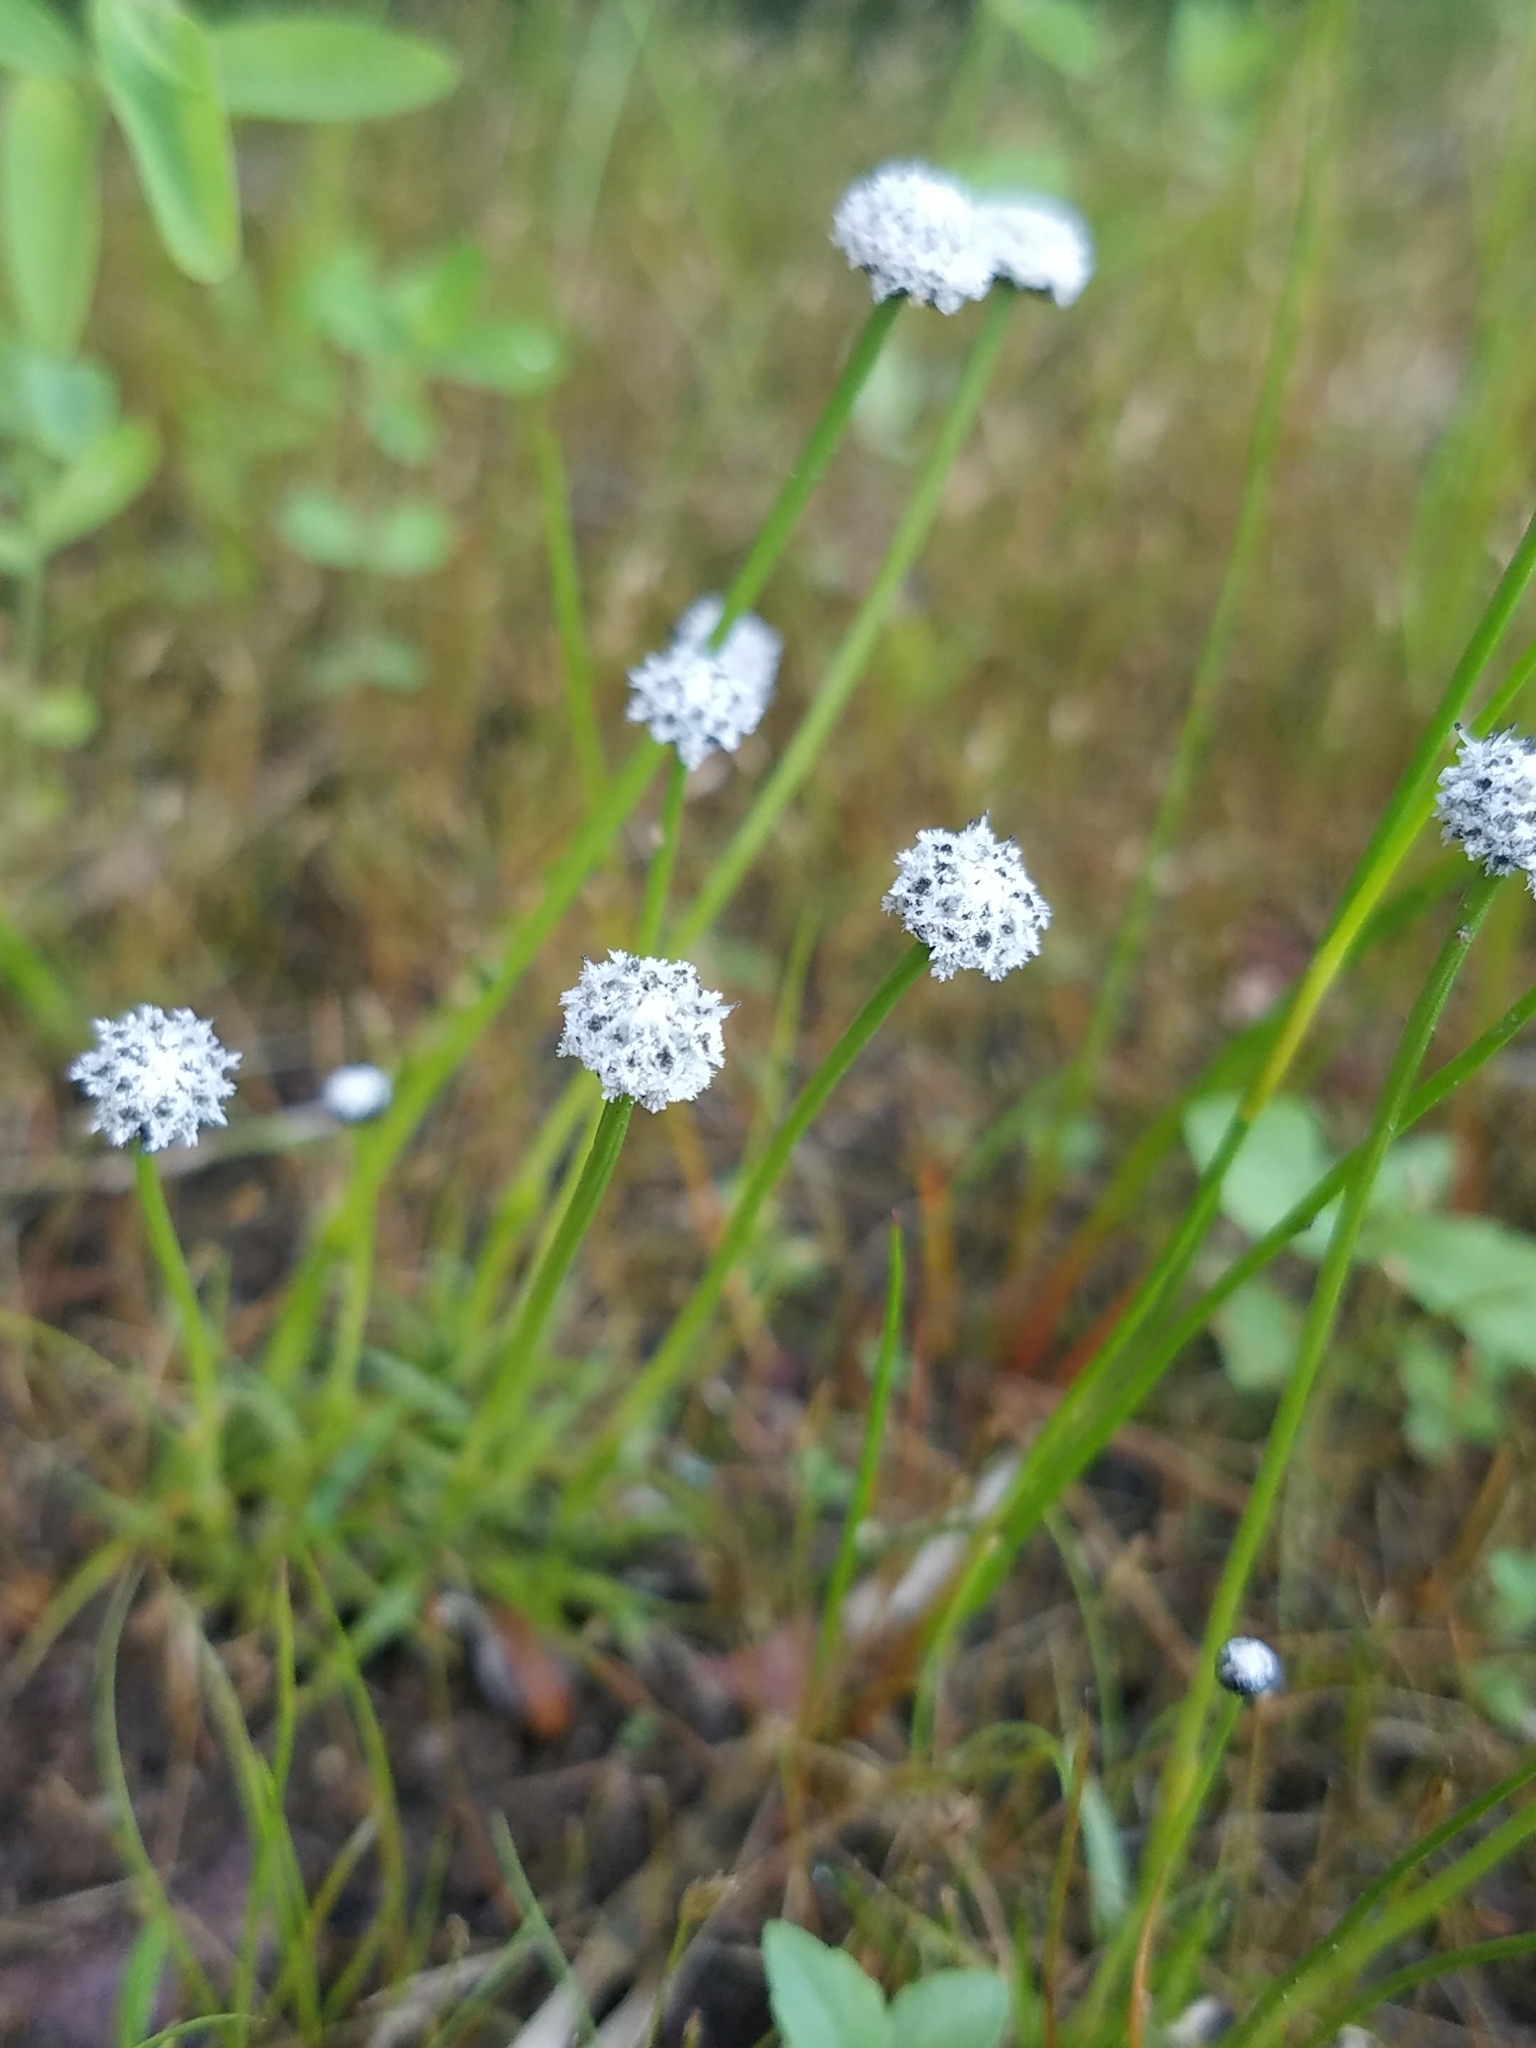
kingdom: Plantae
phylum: Tracheophyta
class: Liliopsida
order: Poales
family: Eriocaulaceae
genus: Eriocaulon
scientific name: Eriocaulon aquaticum
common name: Pipewort
